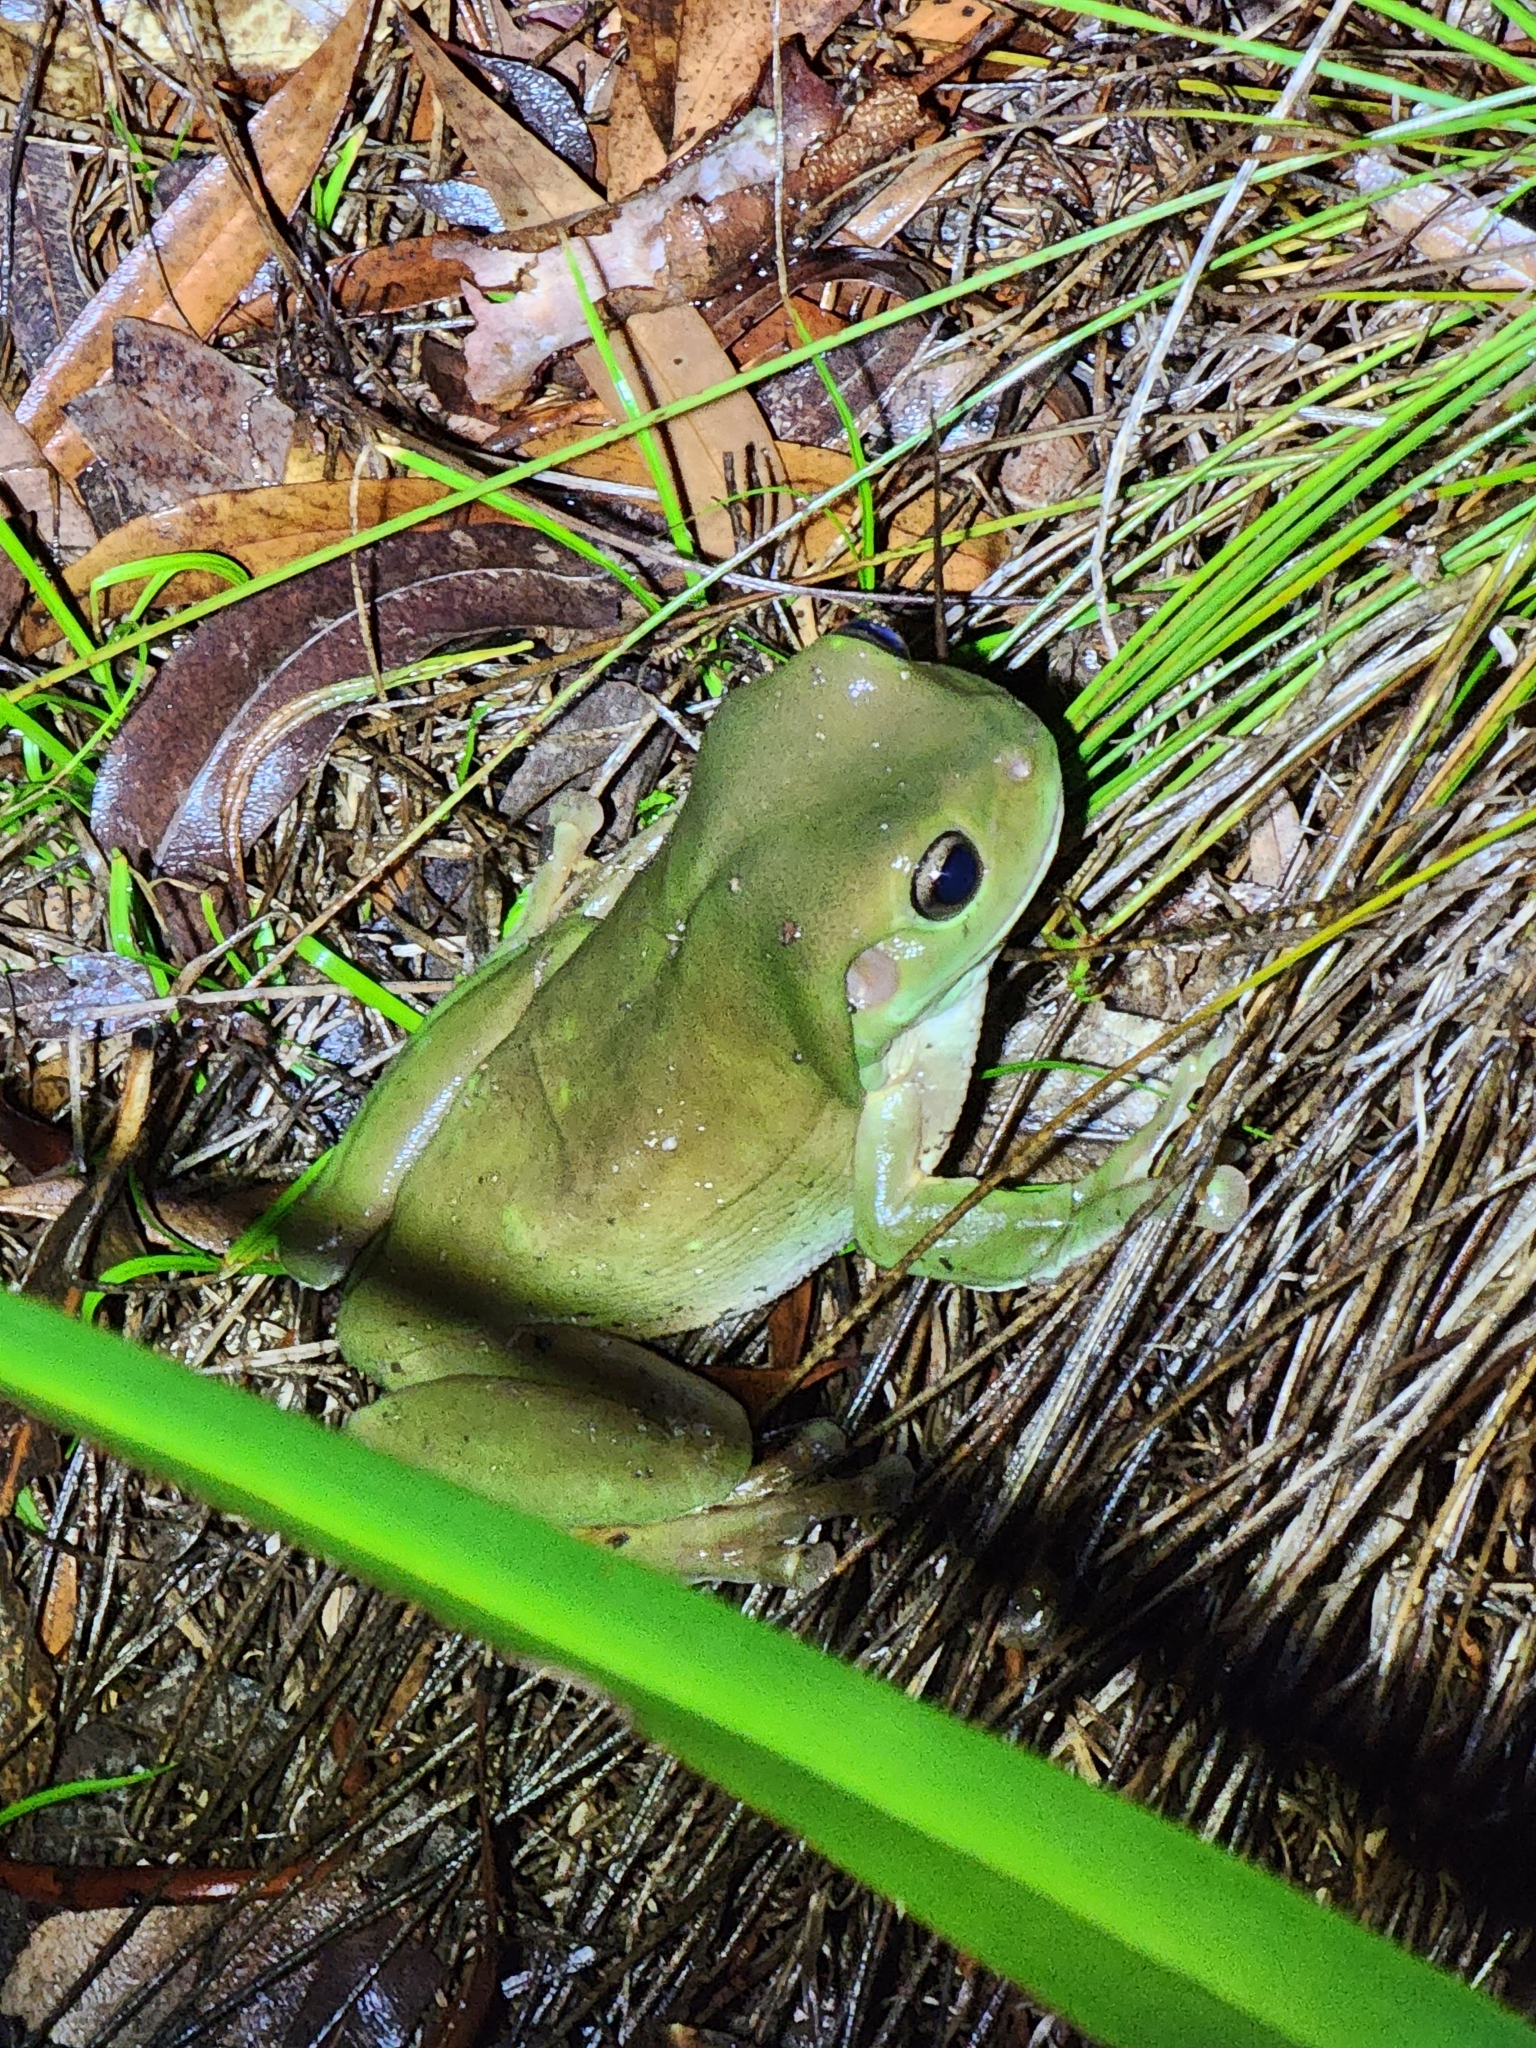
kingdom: Animalia
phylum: Chordata
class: Amphibia
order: Anura
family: Pelodryadidae
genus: Ranoidea
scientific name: Ranoidea caerulea
